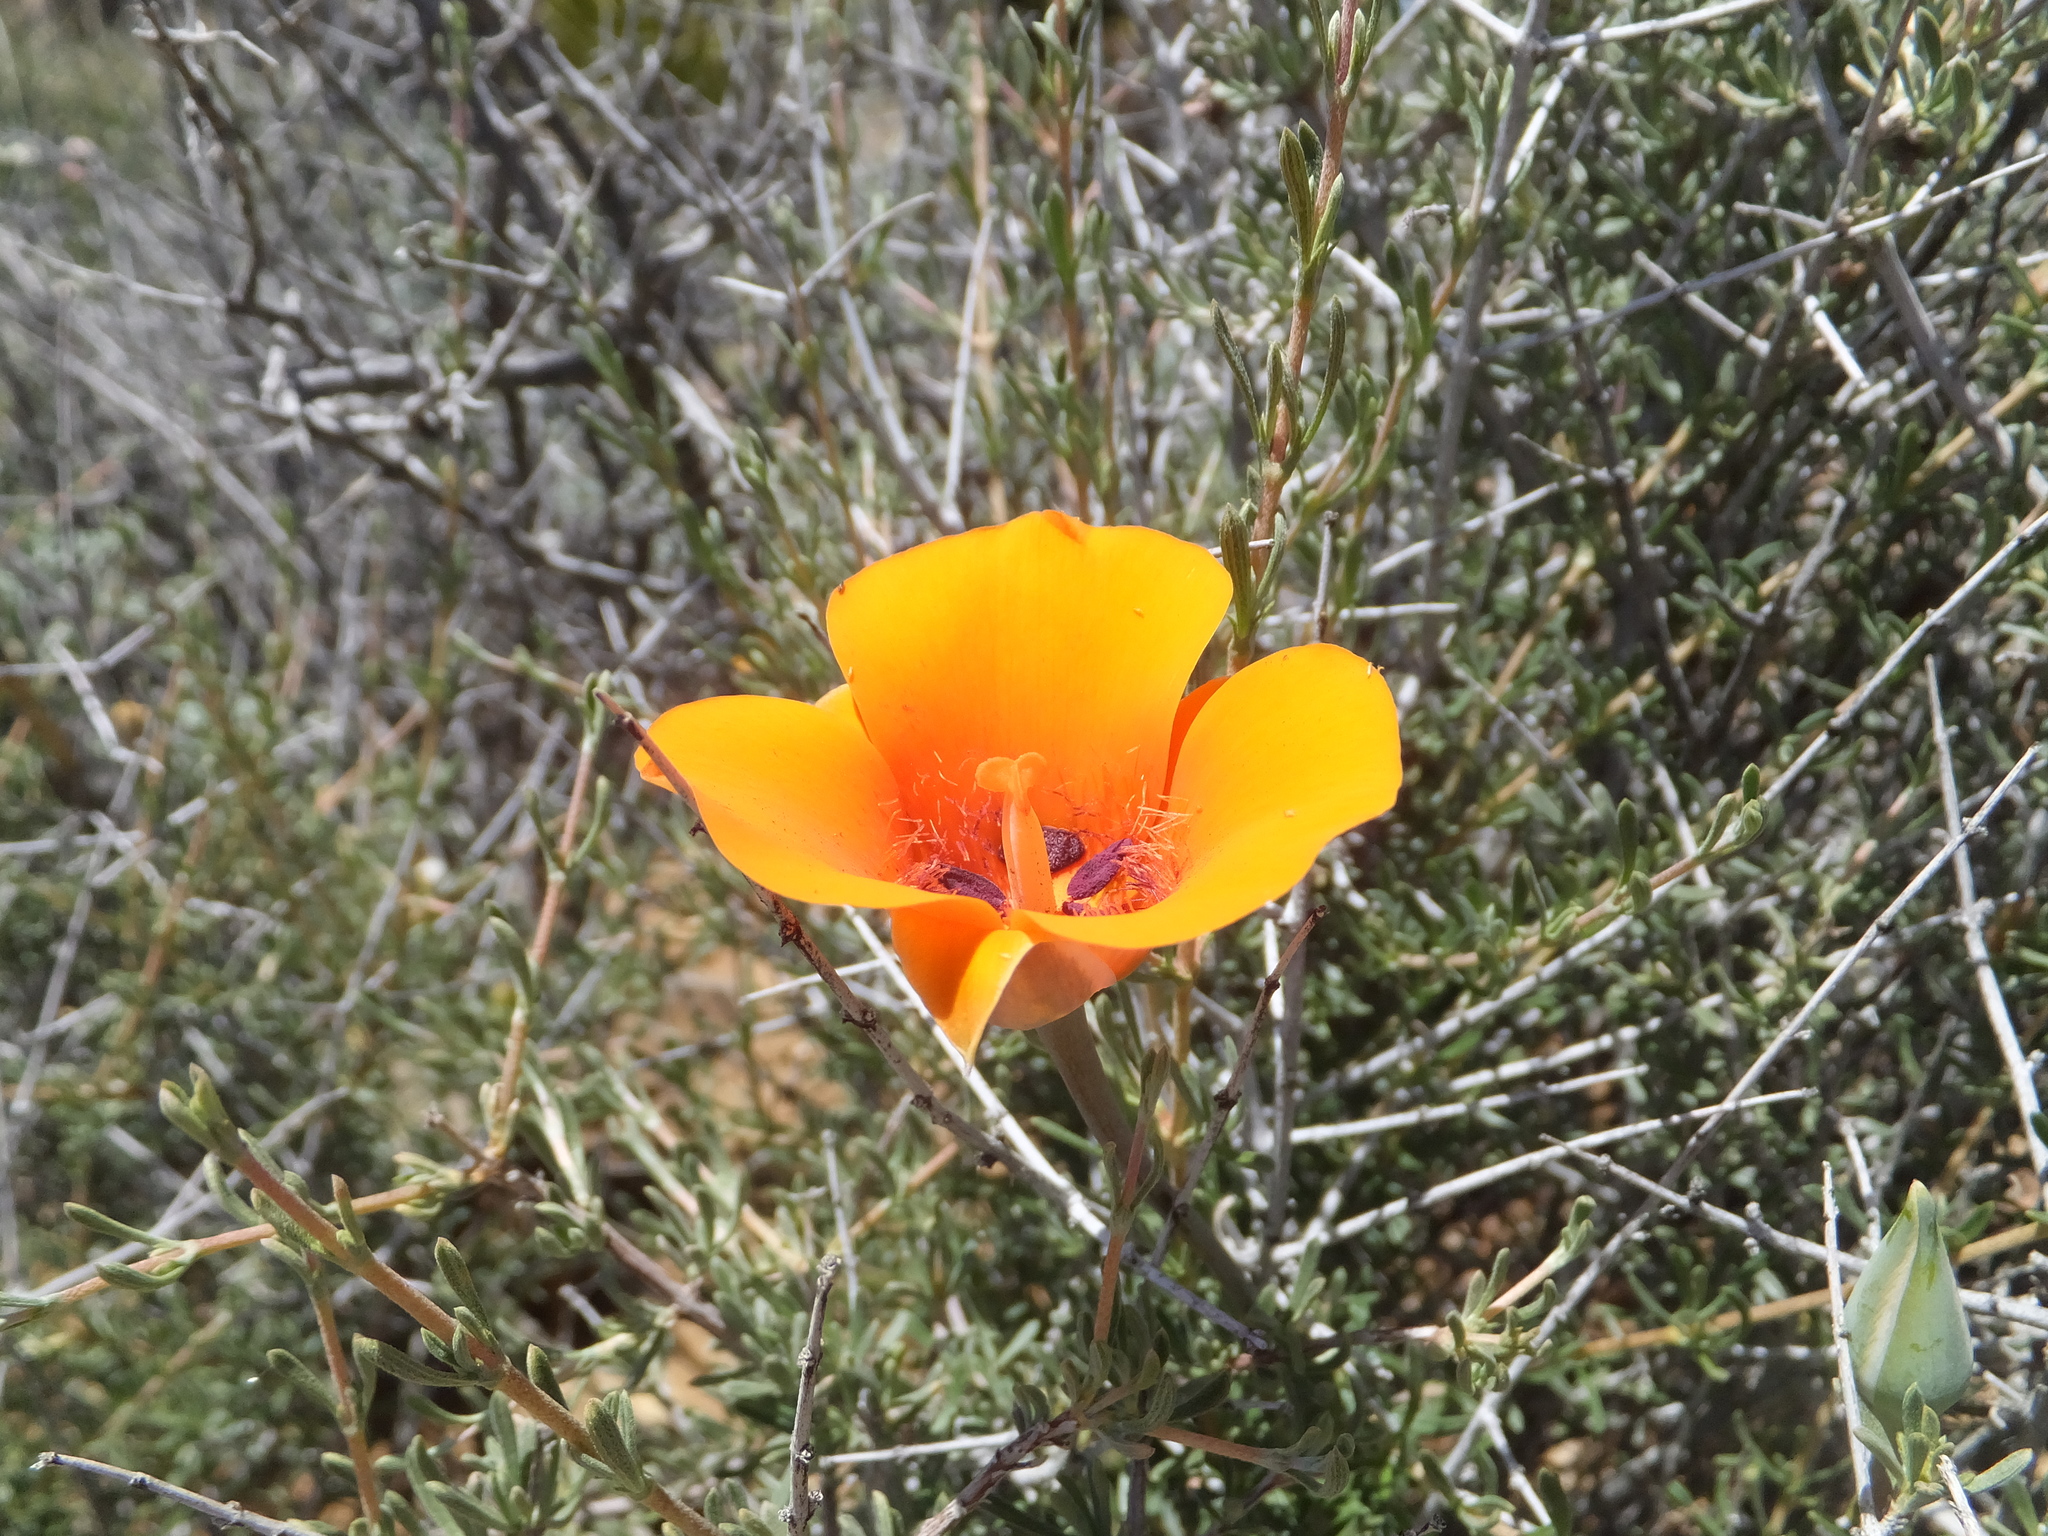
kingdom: Plantae
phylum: Tracheophyta
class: Liliopsida
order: Liliales
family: Liliaceae
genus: Calochortus
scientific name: Calochortus kennedyi
